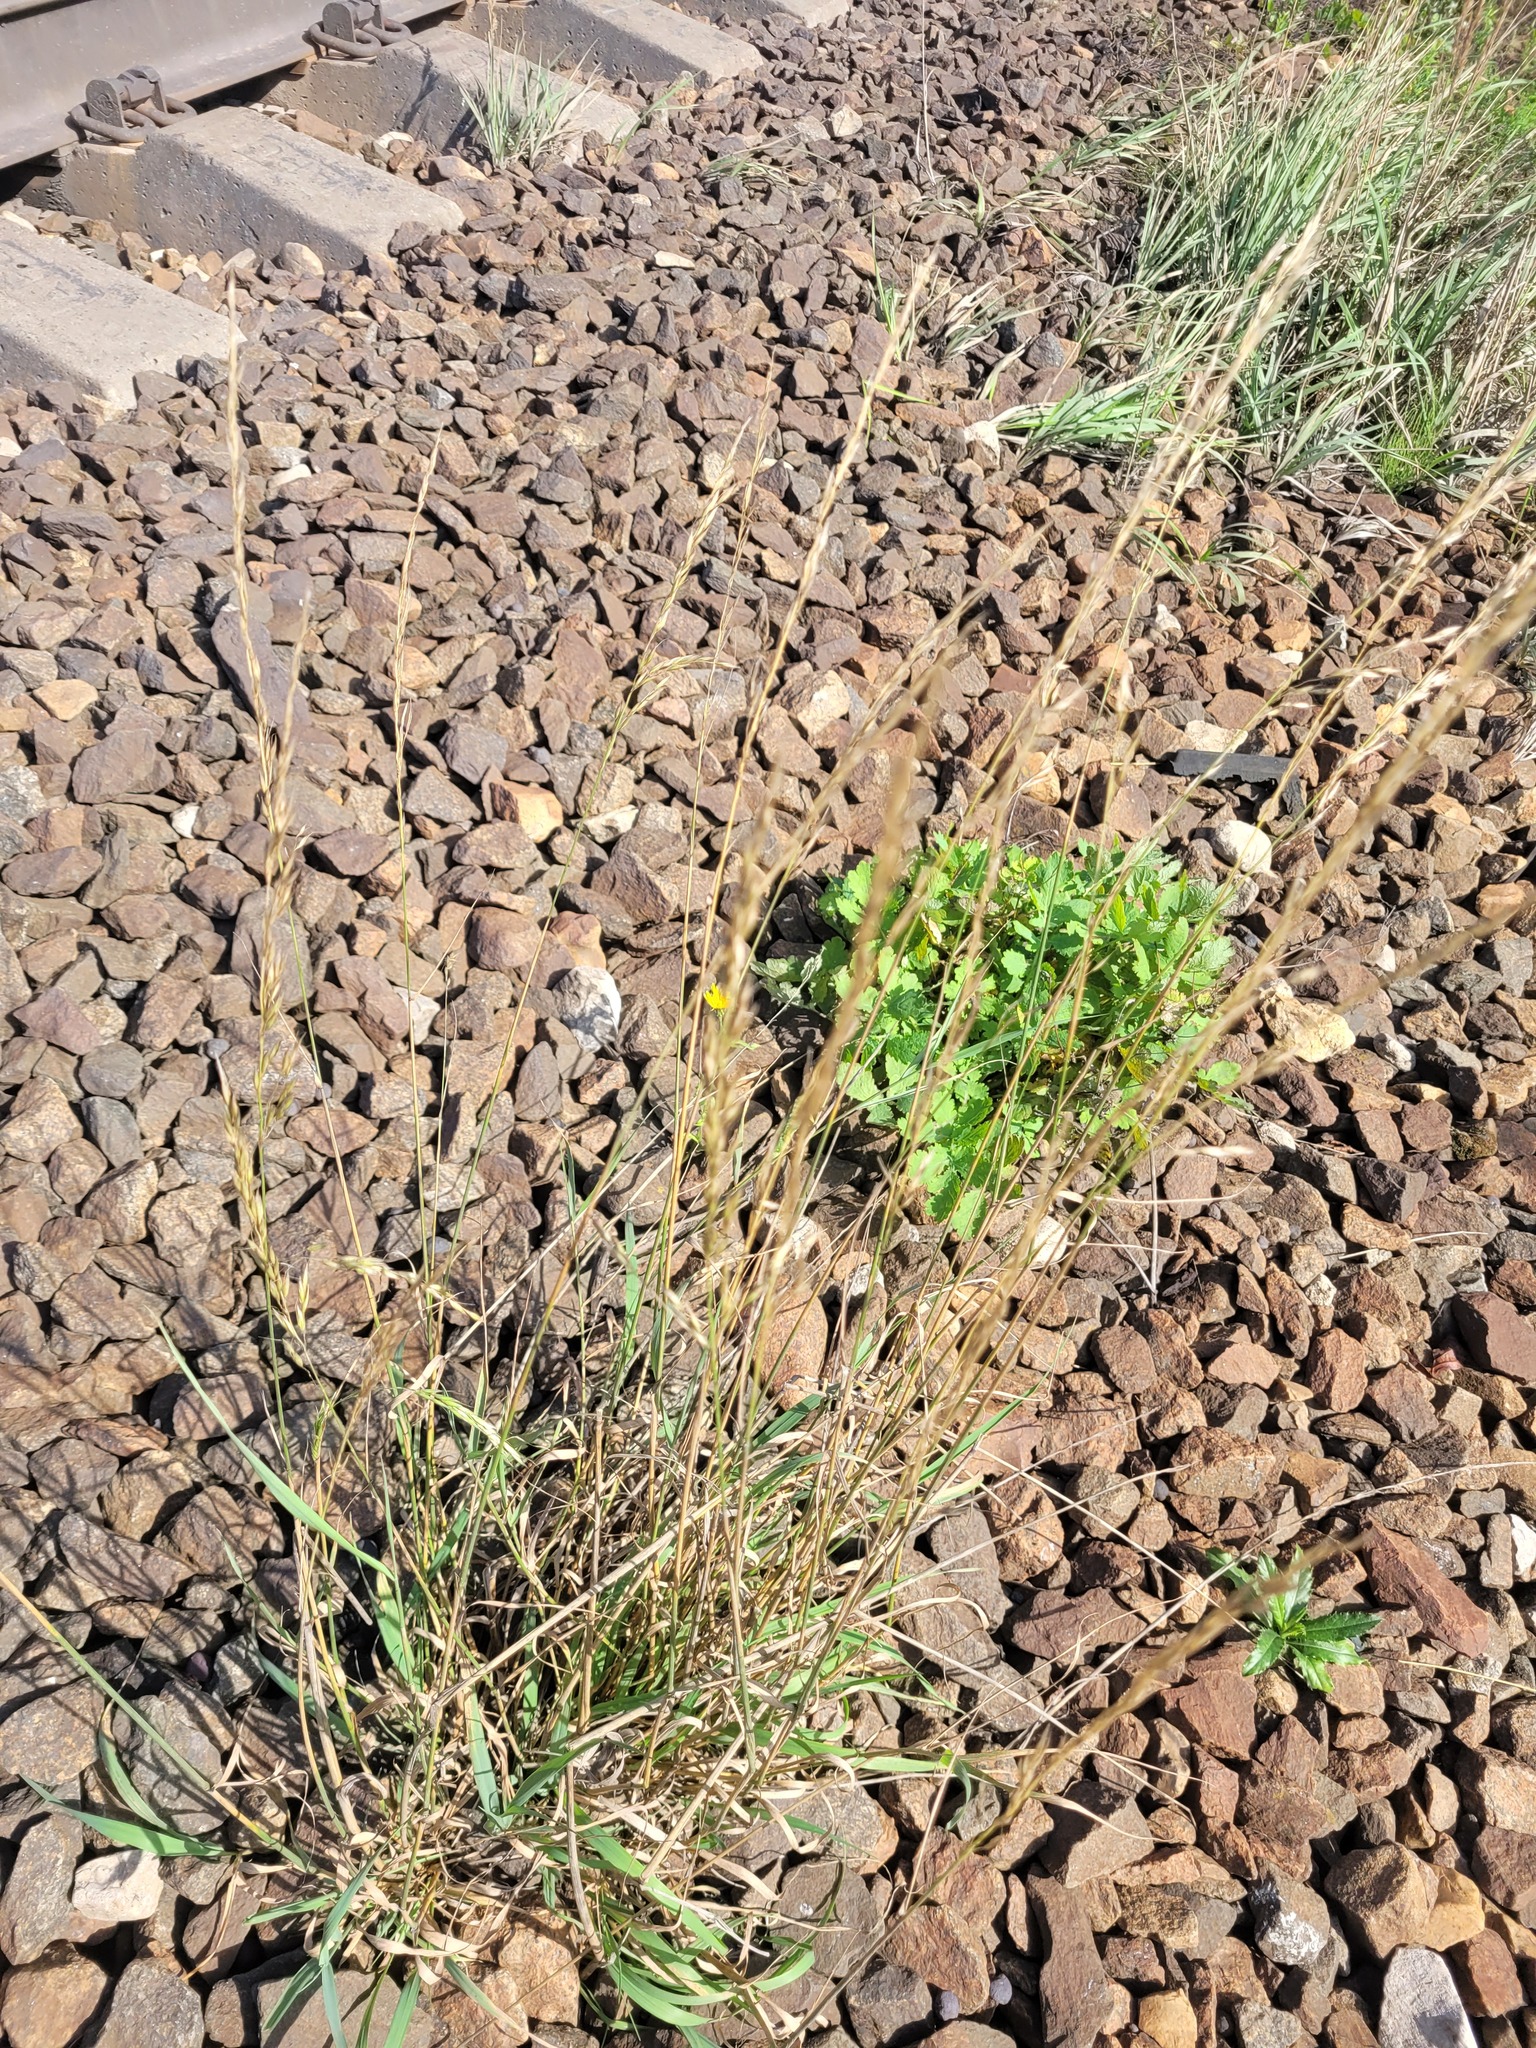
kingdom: Plantae
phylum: Tracheophyta
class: Liliopsida
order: Poales
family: Poaceae
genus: Arrhenatherum
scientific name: Arrhenatherum elatius
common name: Tall oatgrass
